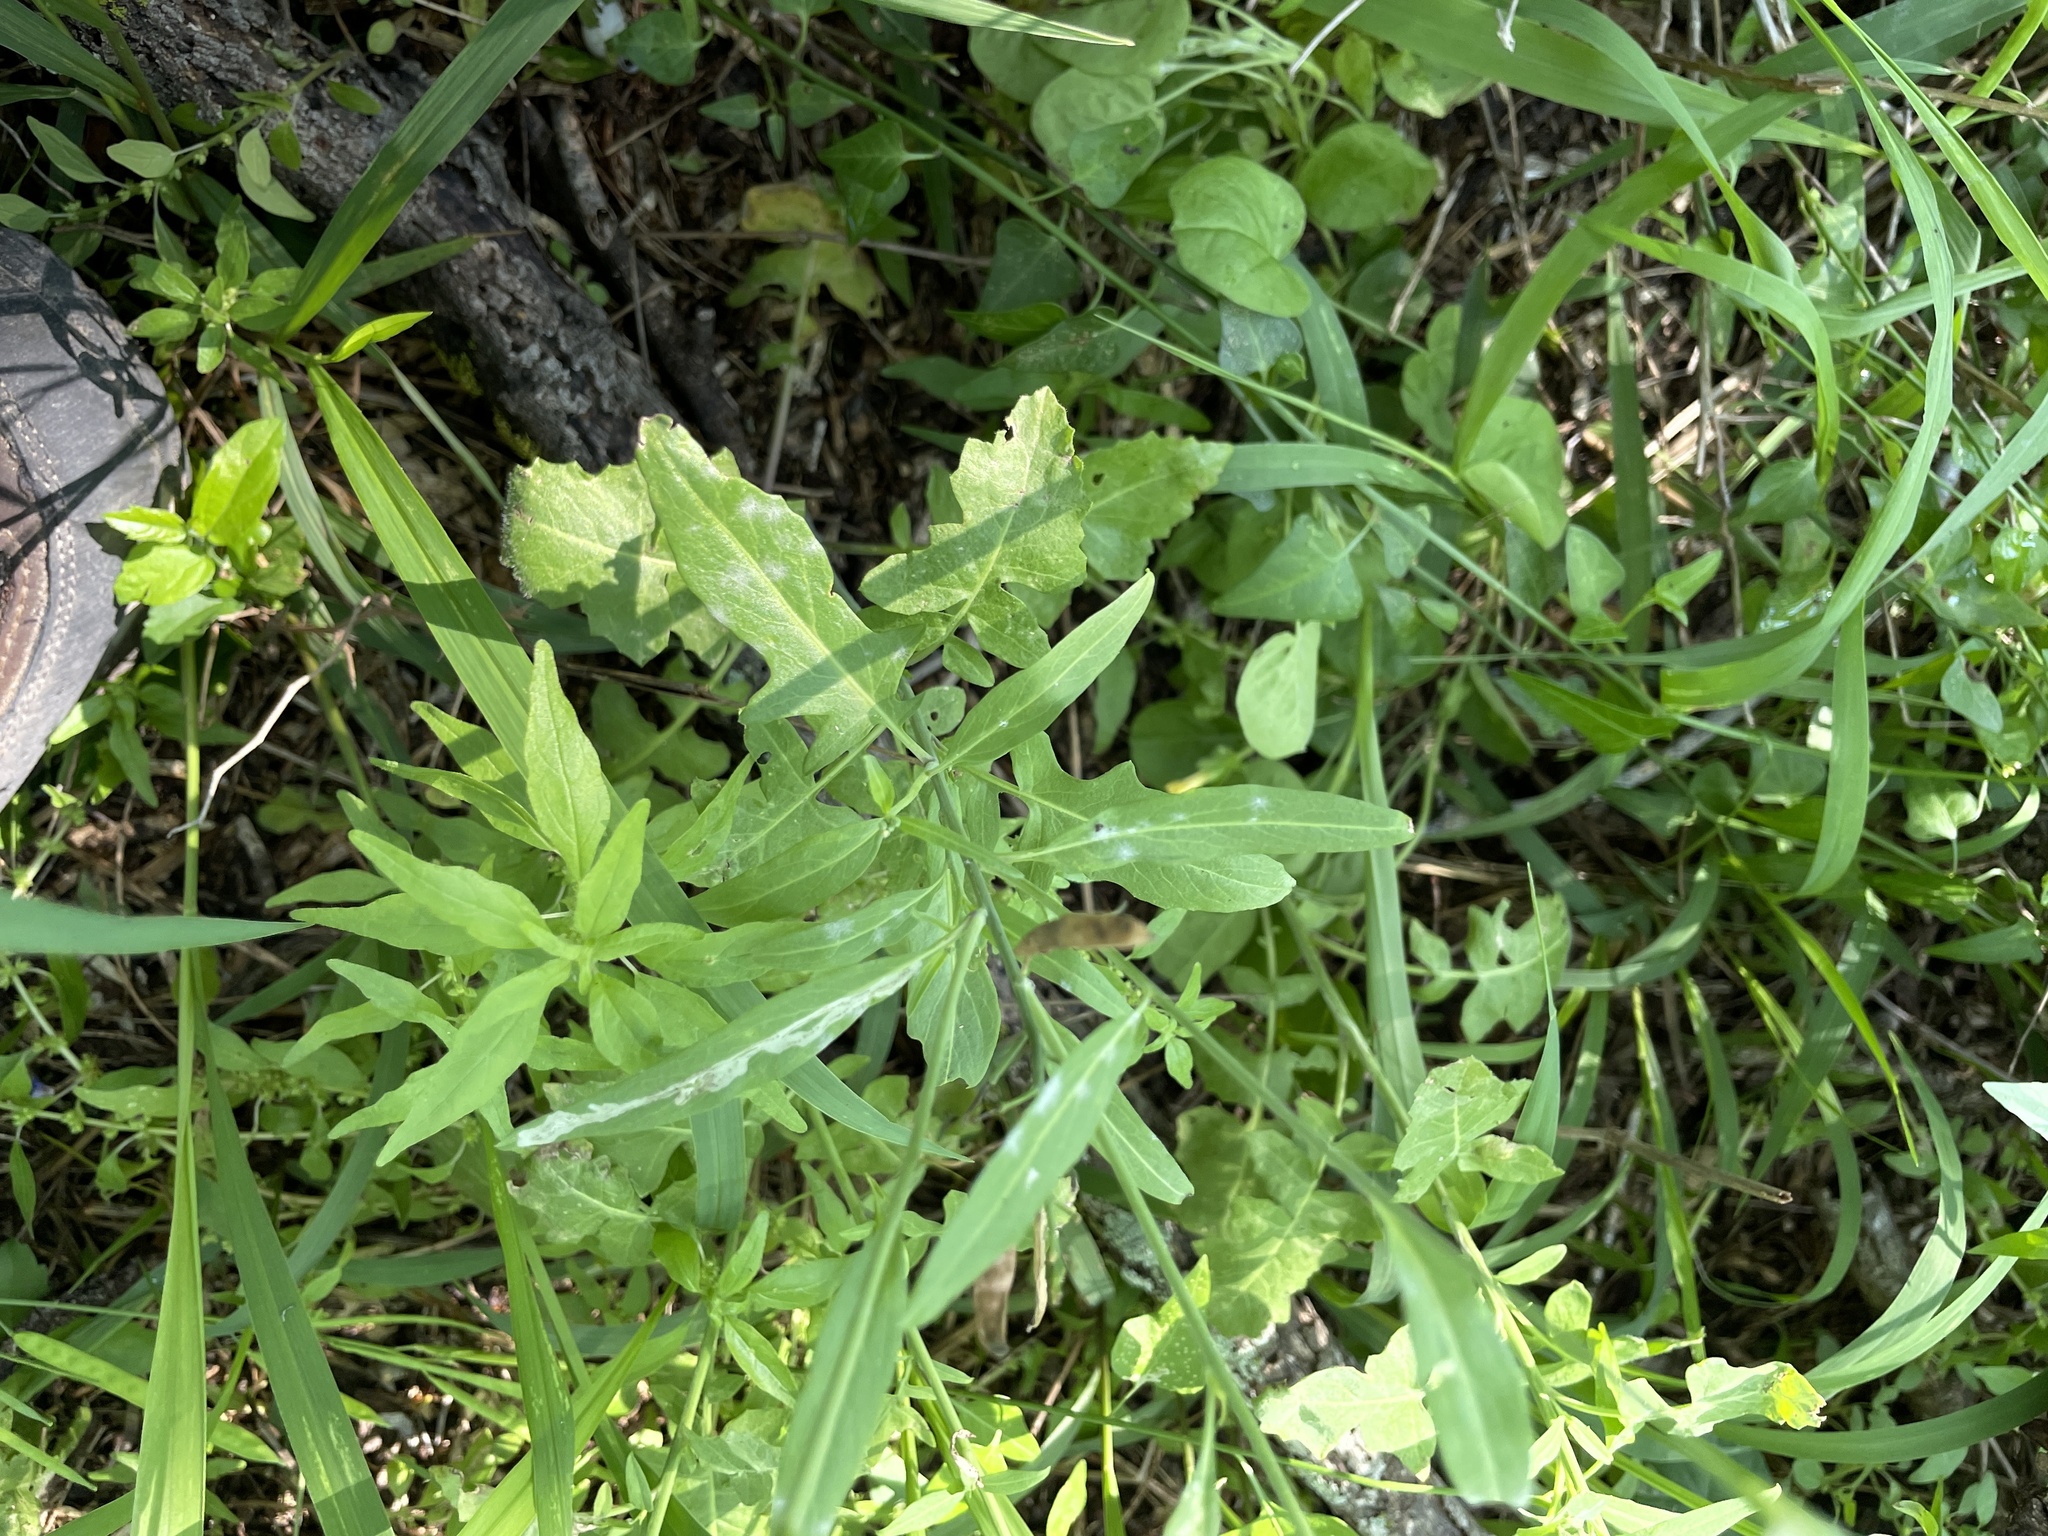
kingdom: Plantae
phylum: Tracheophyta
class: Magnoliopsida
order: Brassicales
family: Brassicaceae
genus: Streptanthus
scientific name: Streptanthus petiolaris
